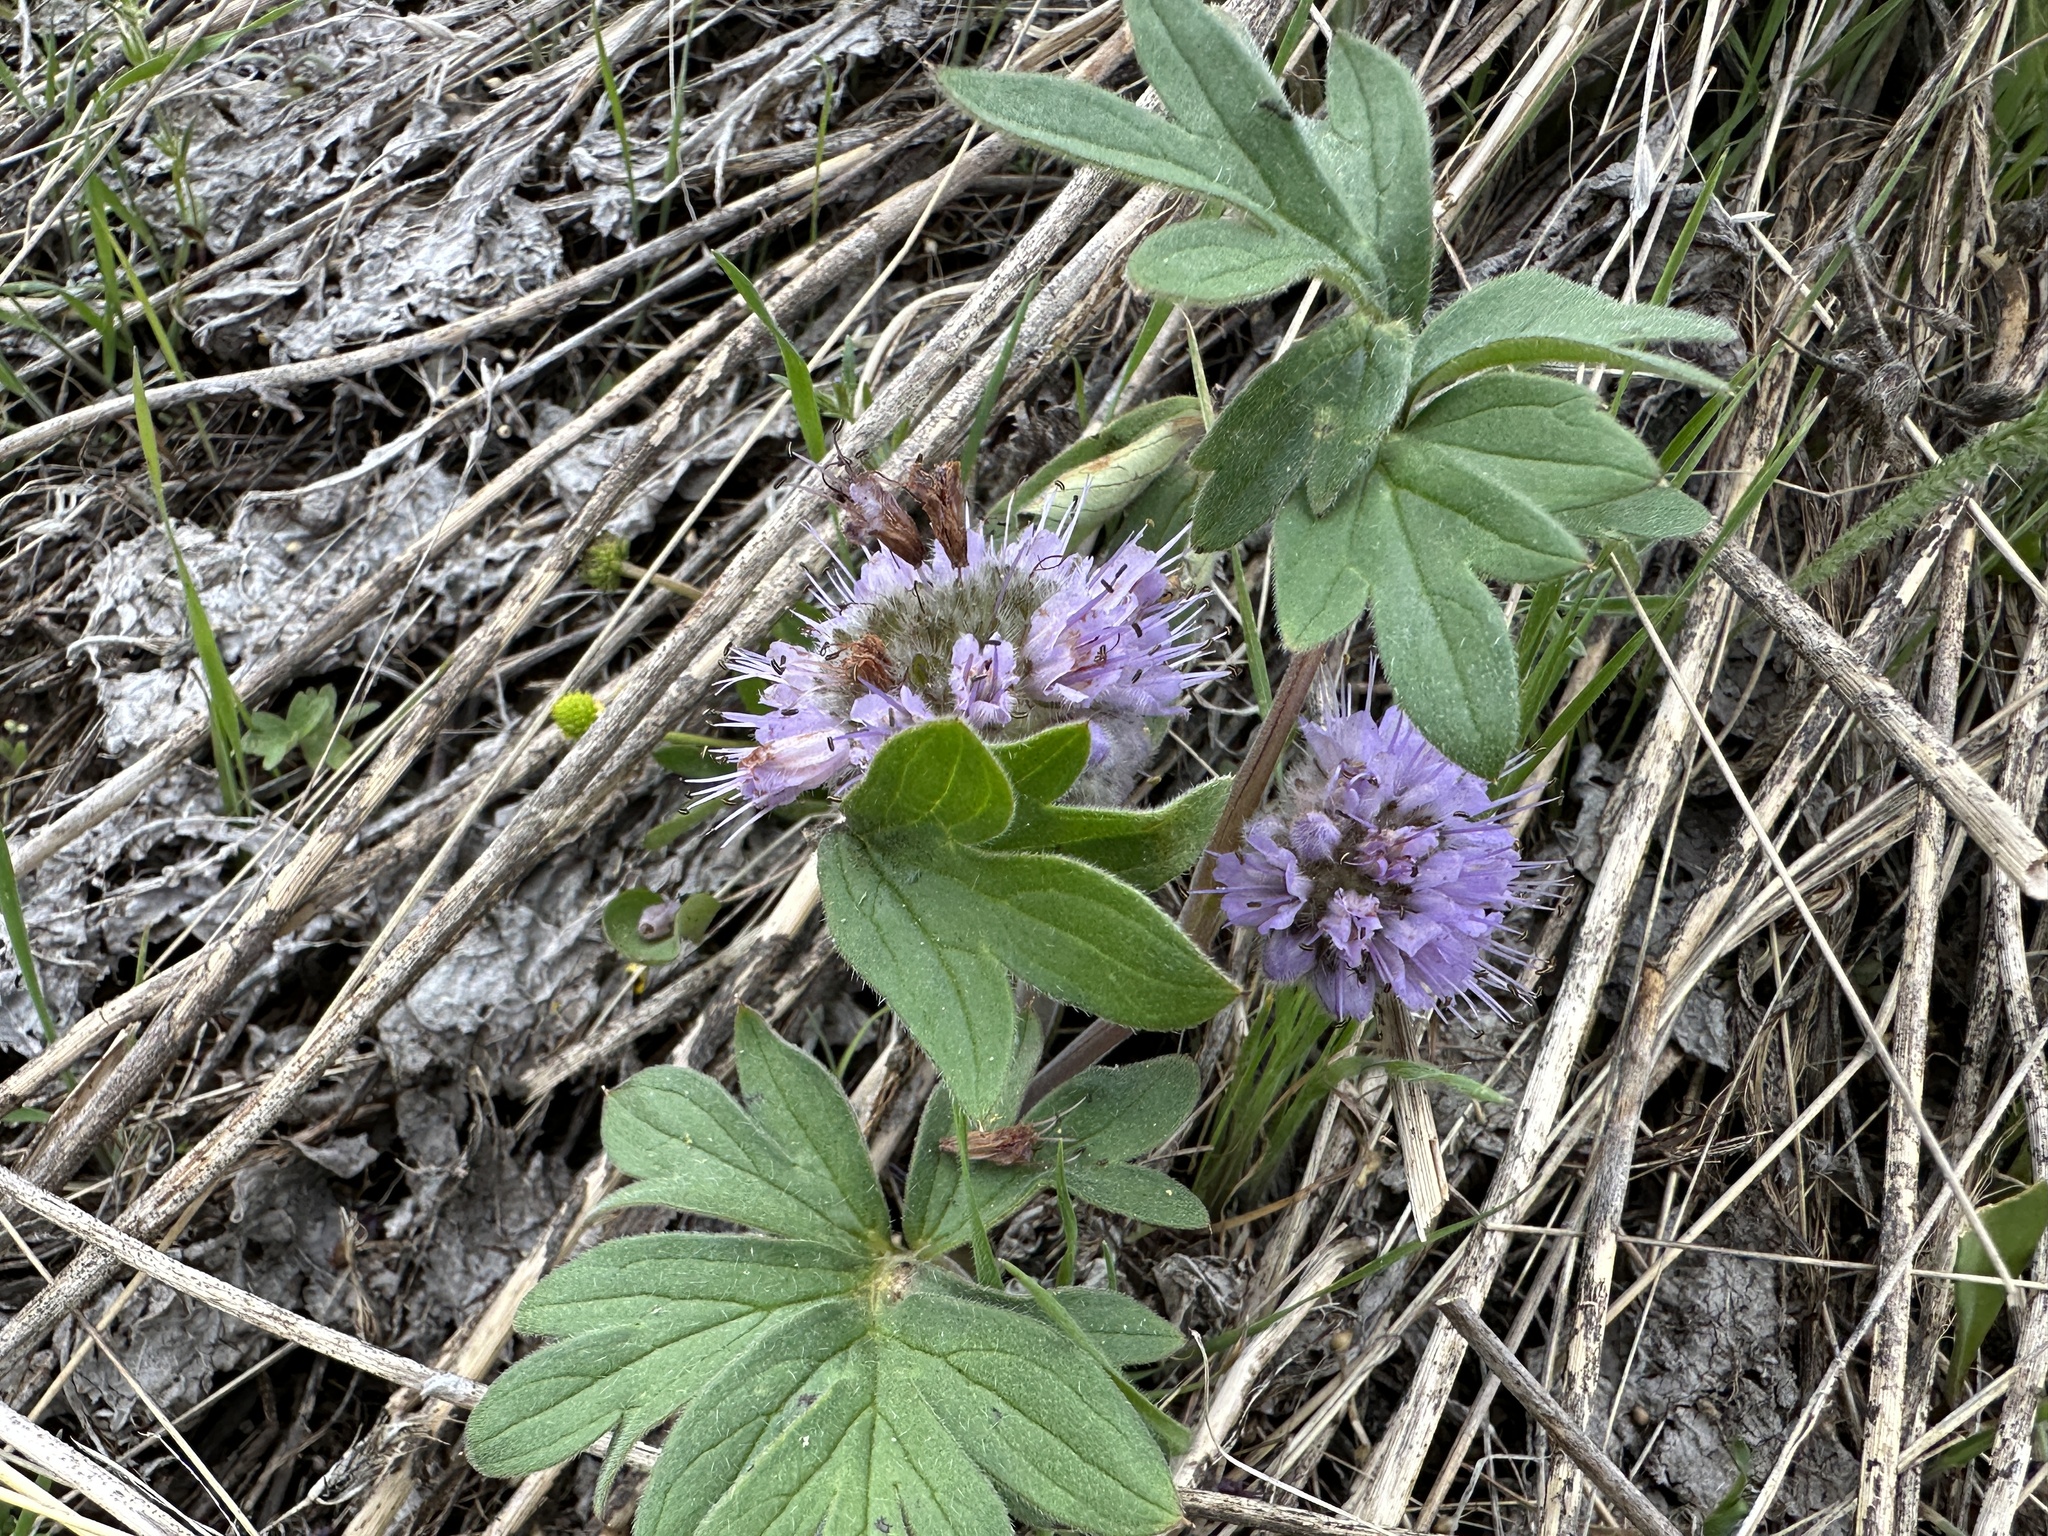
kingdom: Plantae
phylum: Tracheophyta
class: Magnoliopsida
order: Boraginales
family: Hydrophyllaceae
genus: Hydrophyllum
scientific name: Hydrophyllum capitatum
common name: Woollen-breeches
